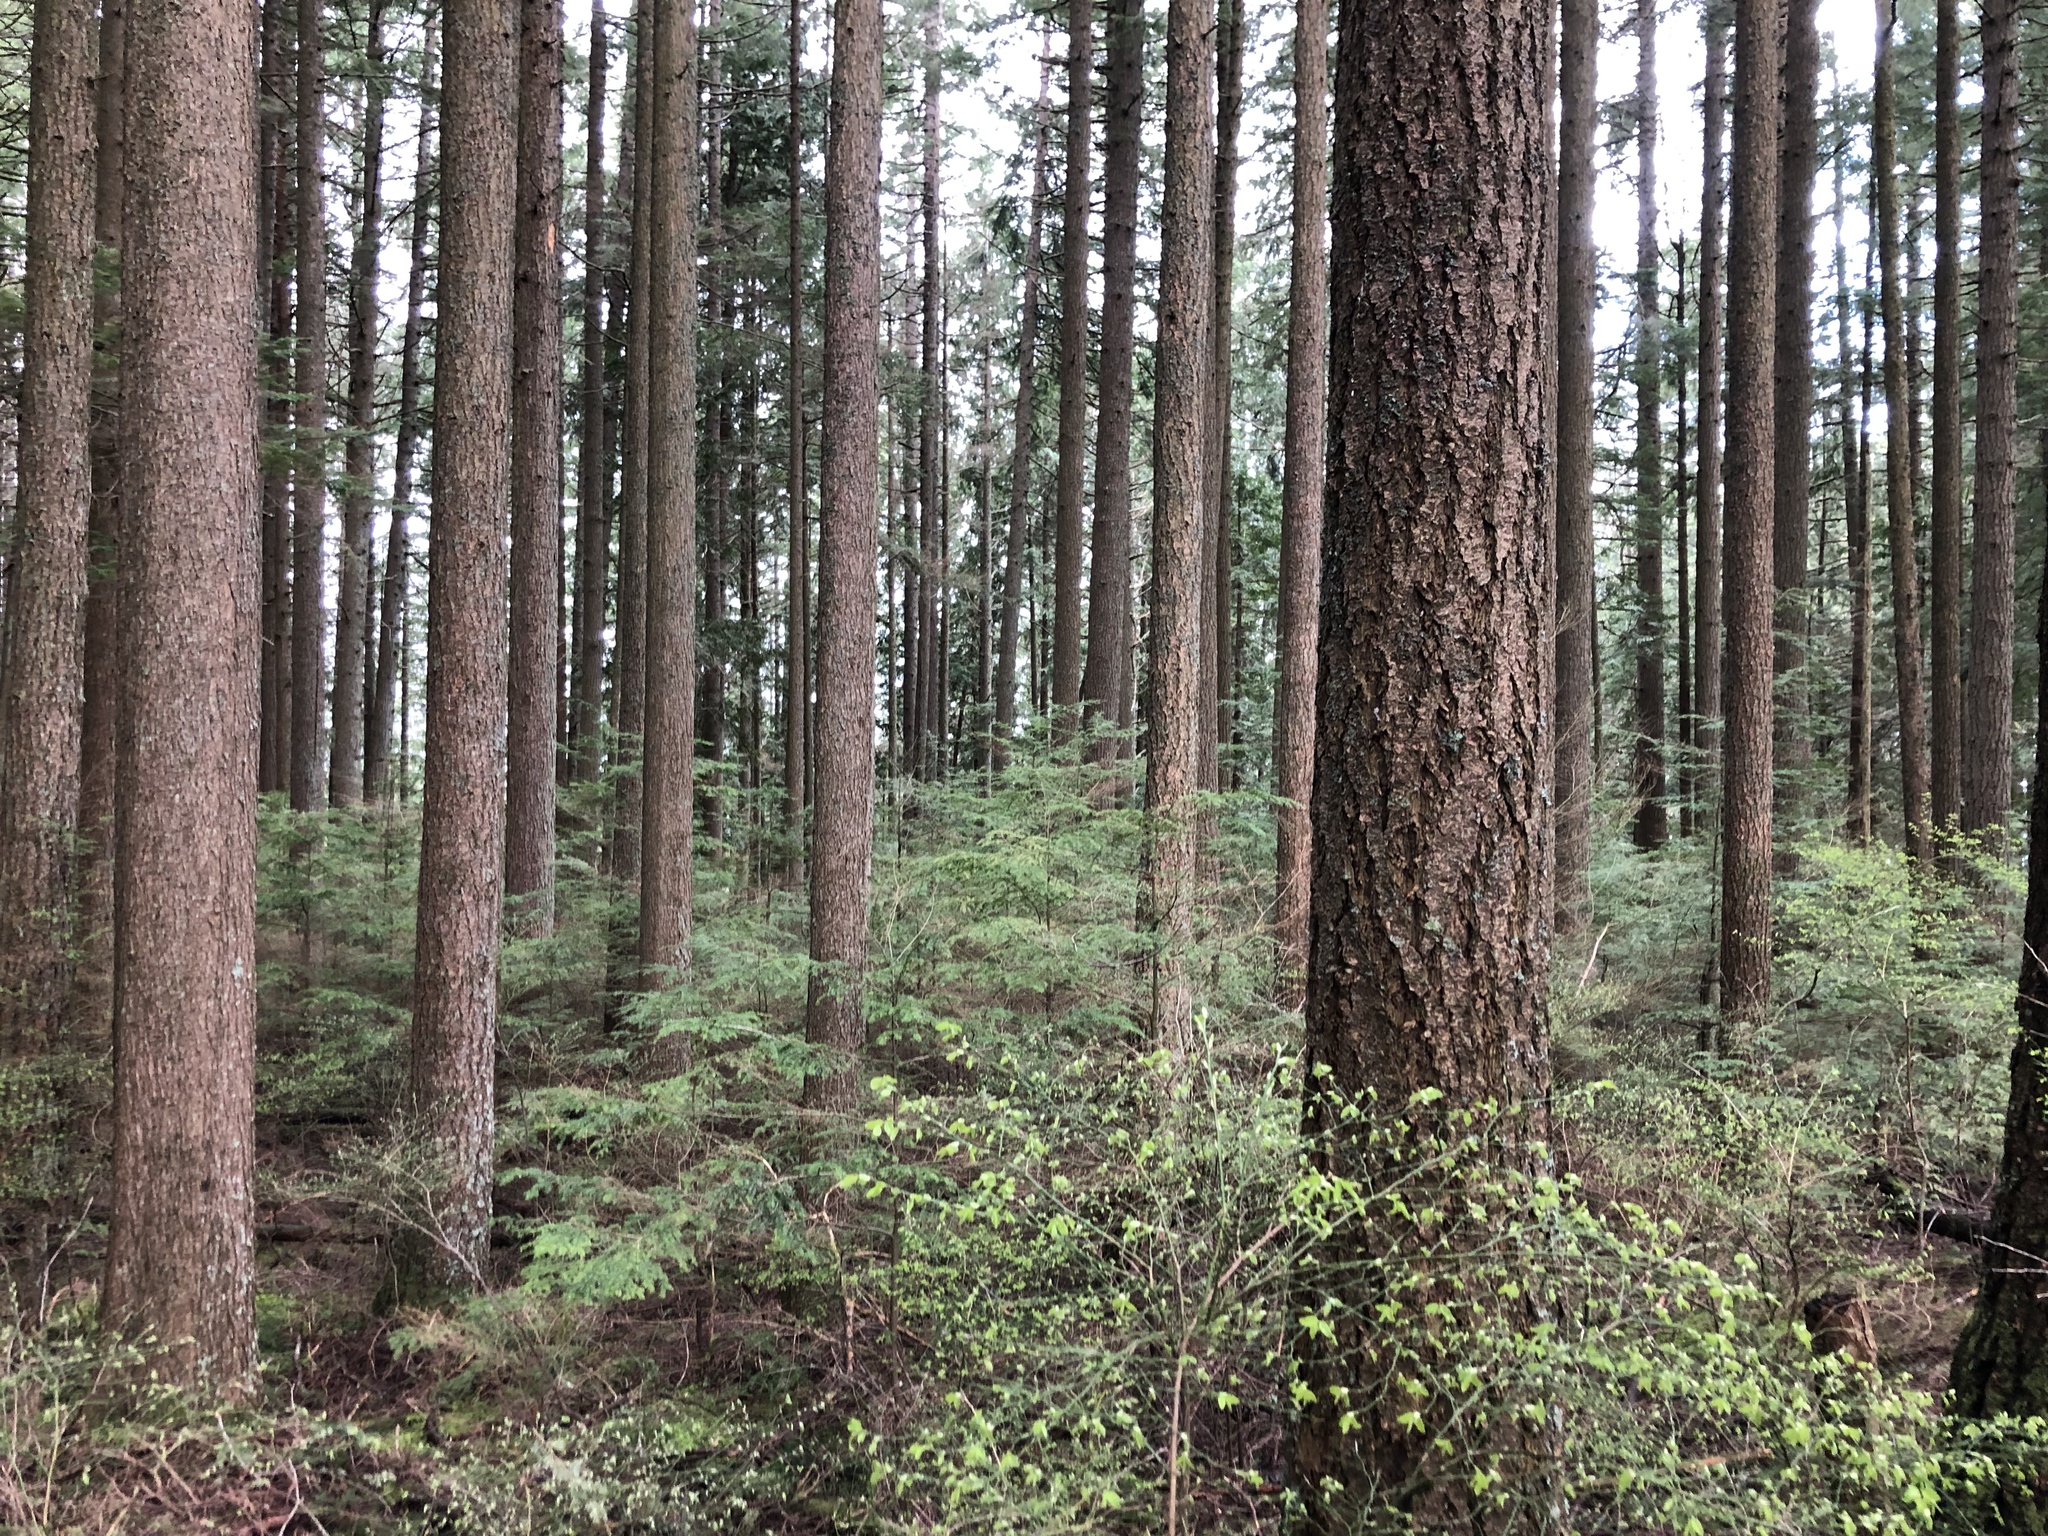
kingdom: Plantae
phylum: Tracheophyta
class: Pinopsida
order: Pinales
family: Pinaceae
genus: Pseudotsuga
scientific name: Pseudotsuga menziesii
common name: Douglas fir
